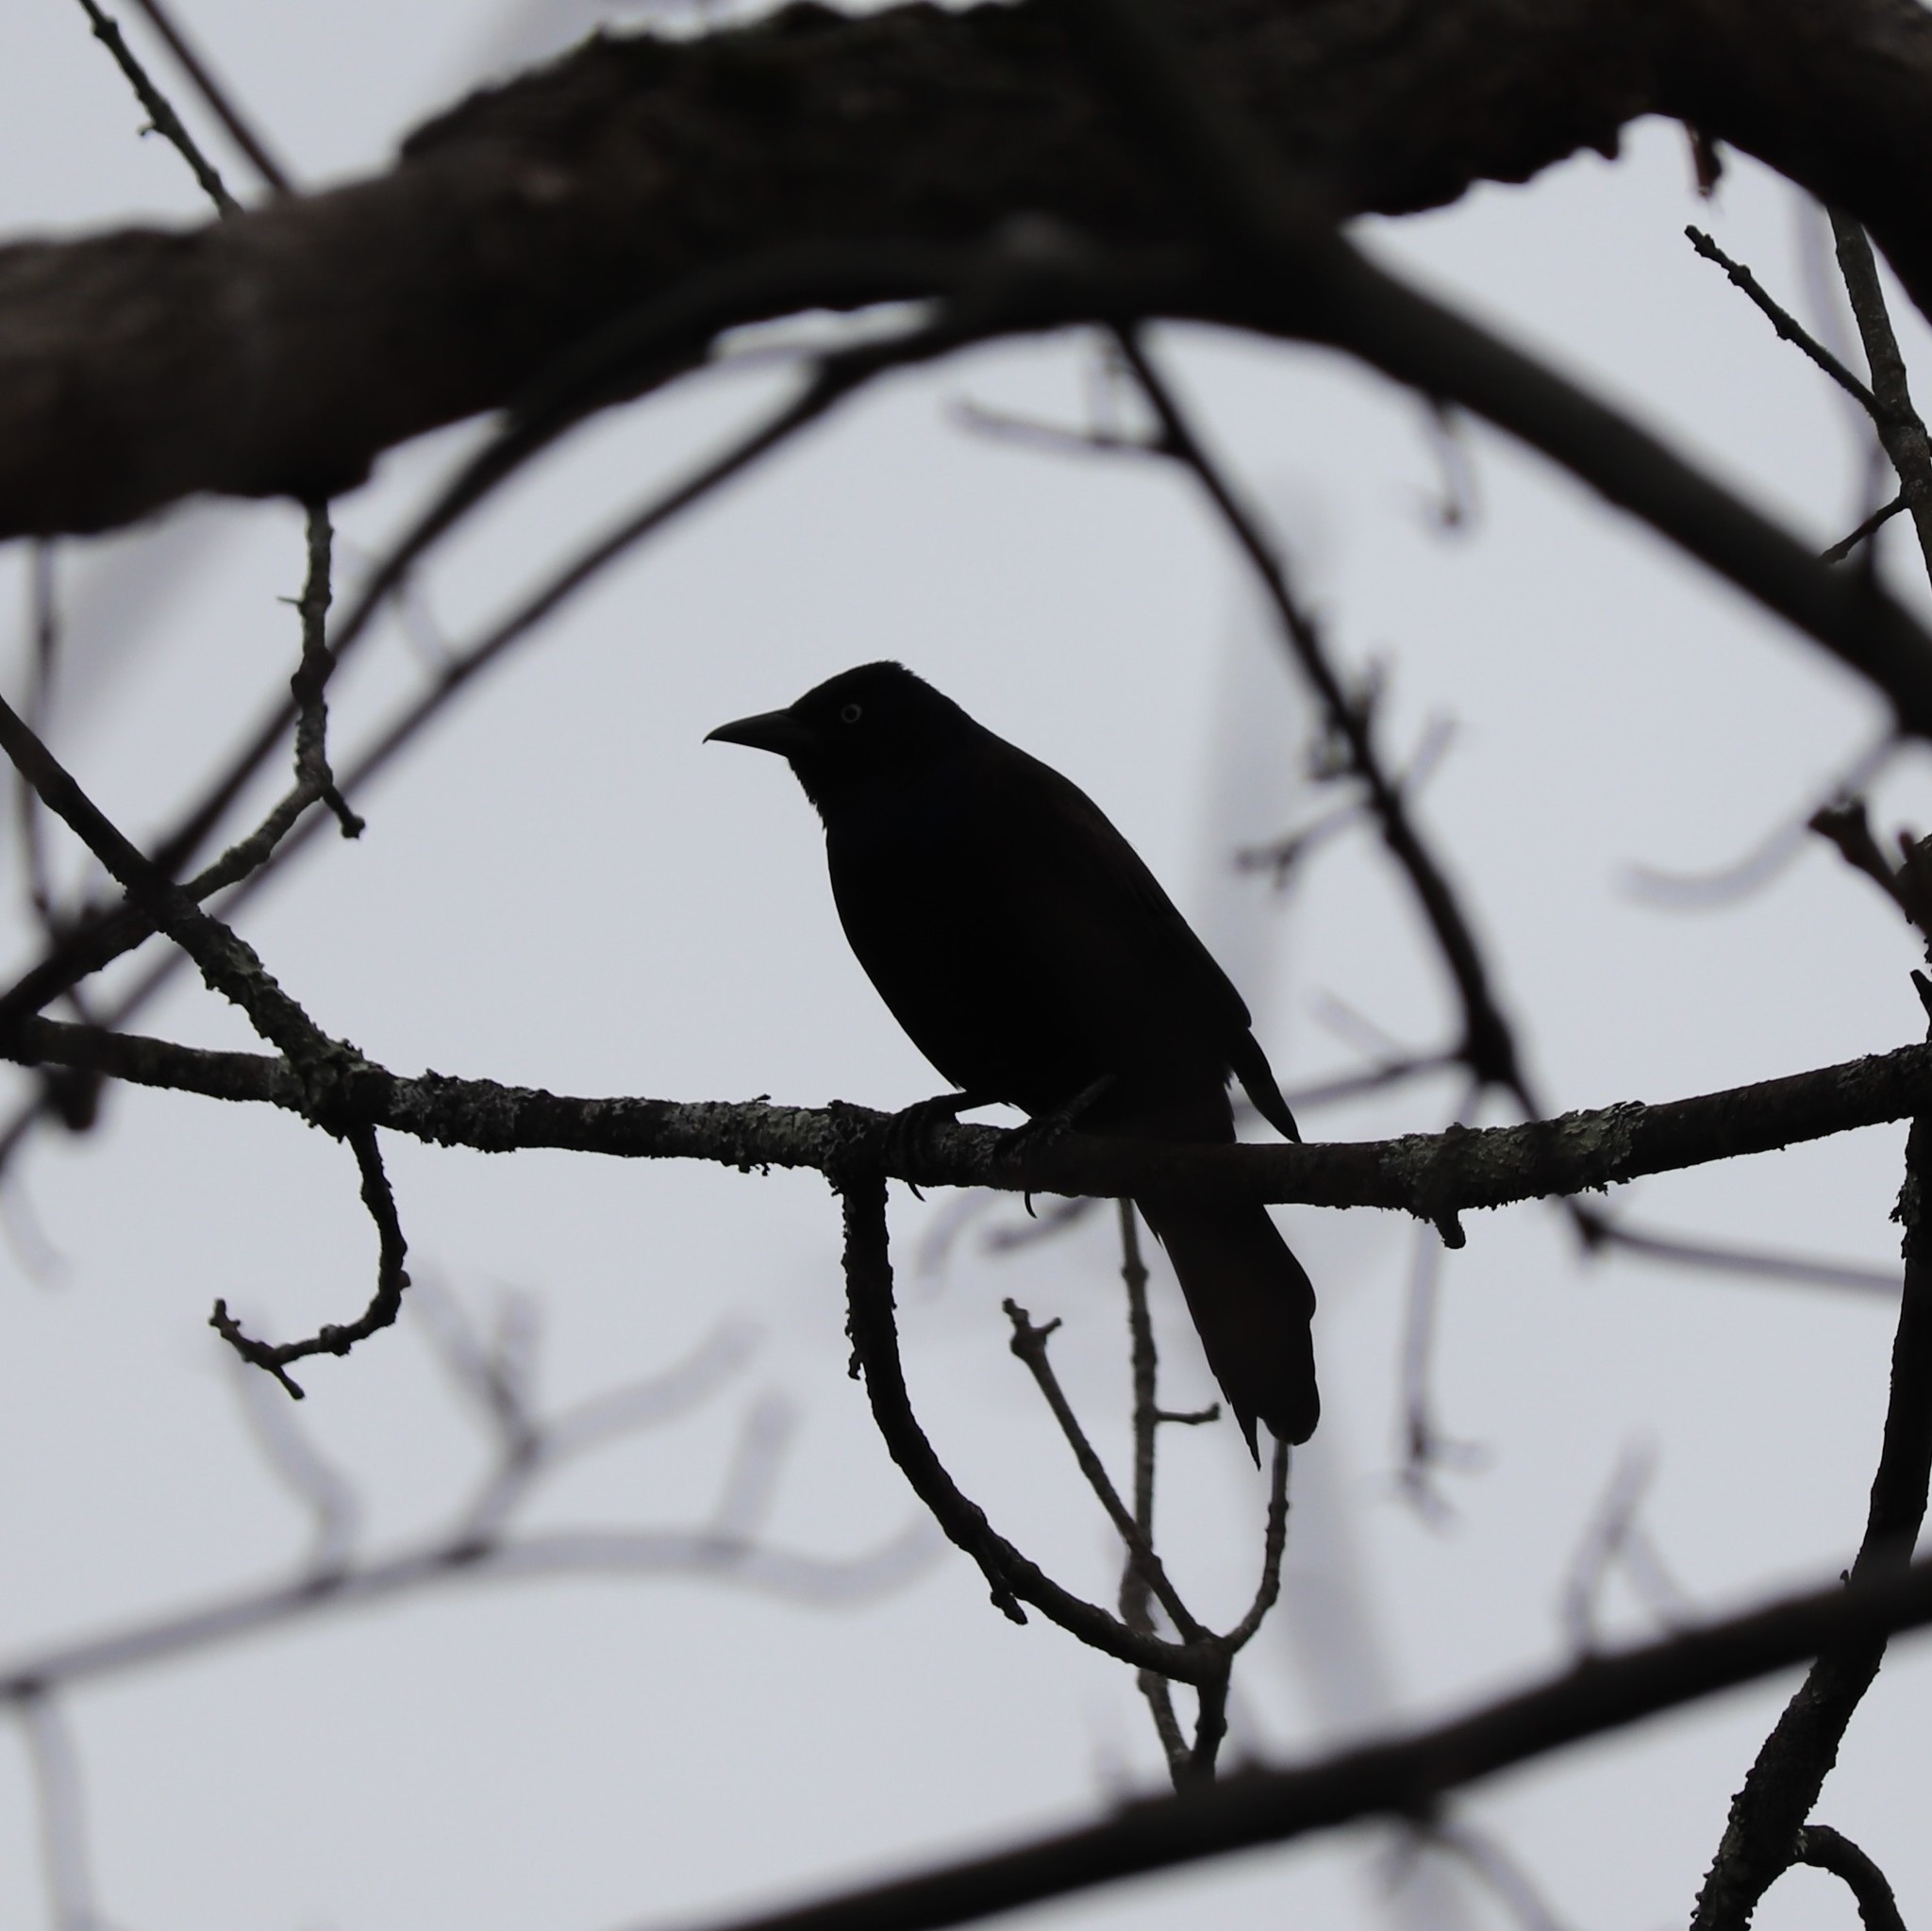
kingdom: Animalia
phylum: Chordata
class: Aves
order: Passeriformes
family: Icteridae
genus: Quiscalus
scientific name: Quiscalus quiscula
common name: Common grackle
